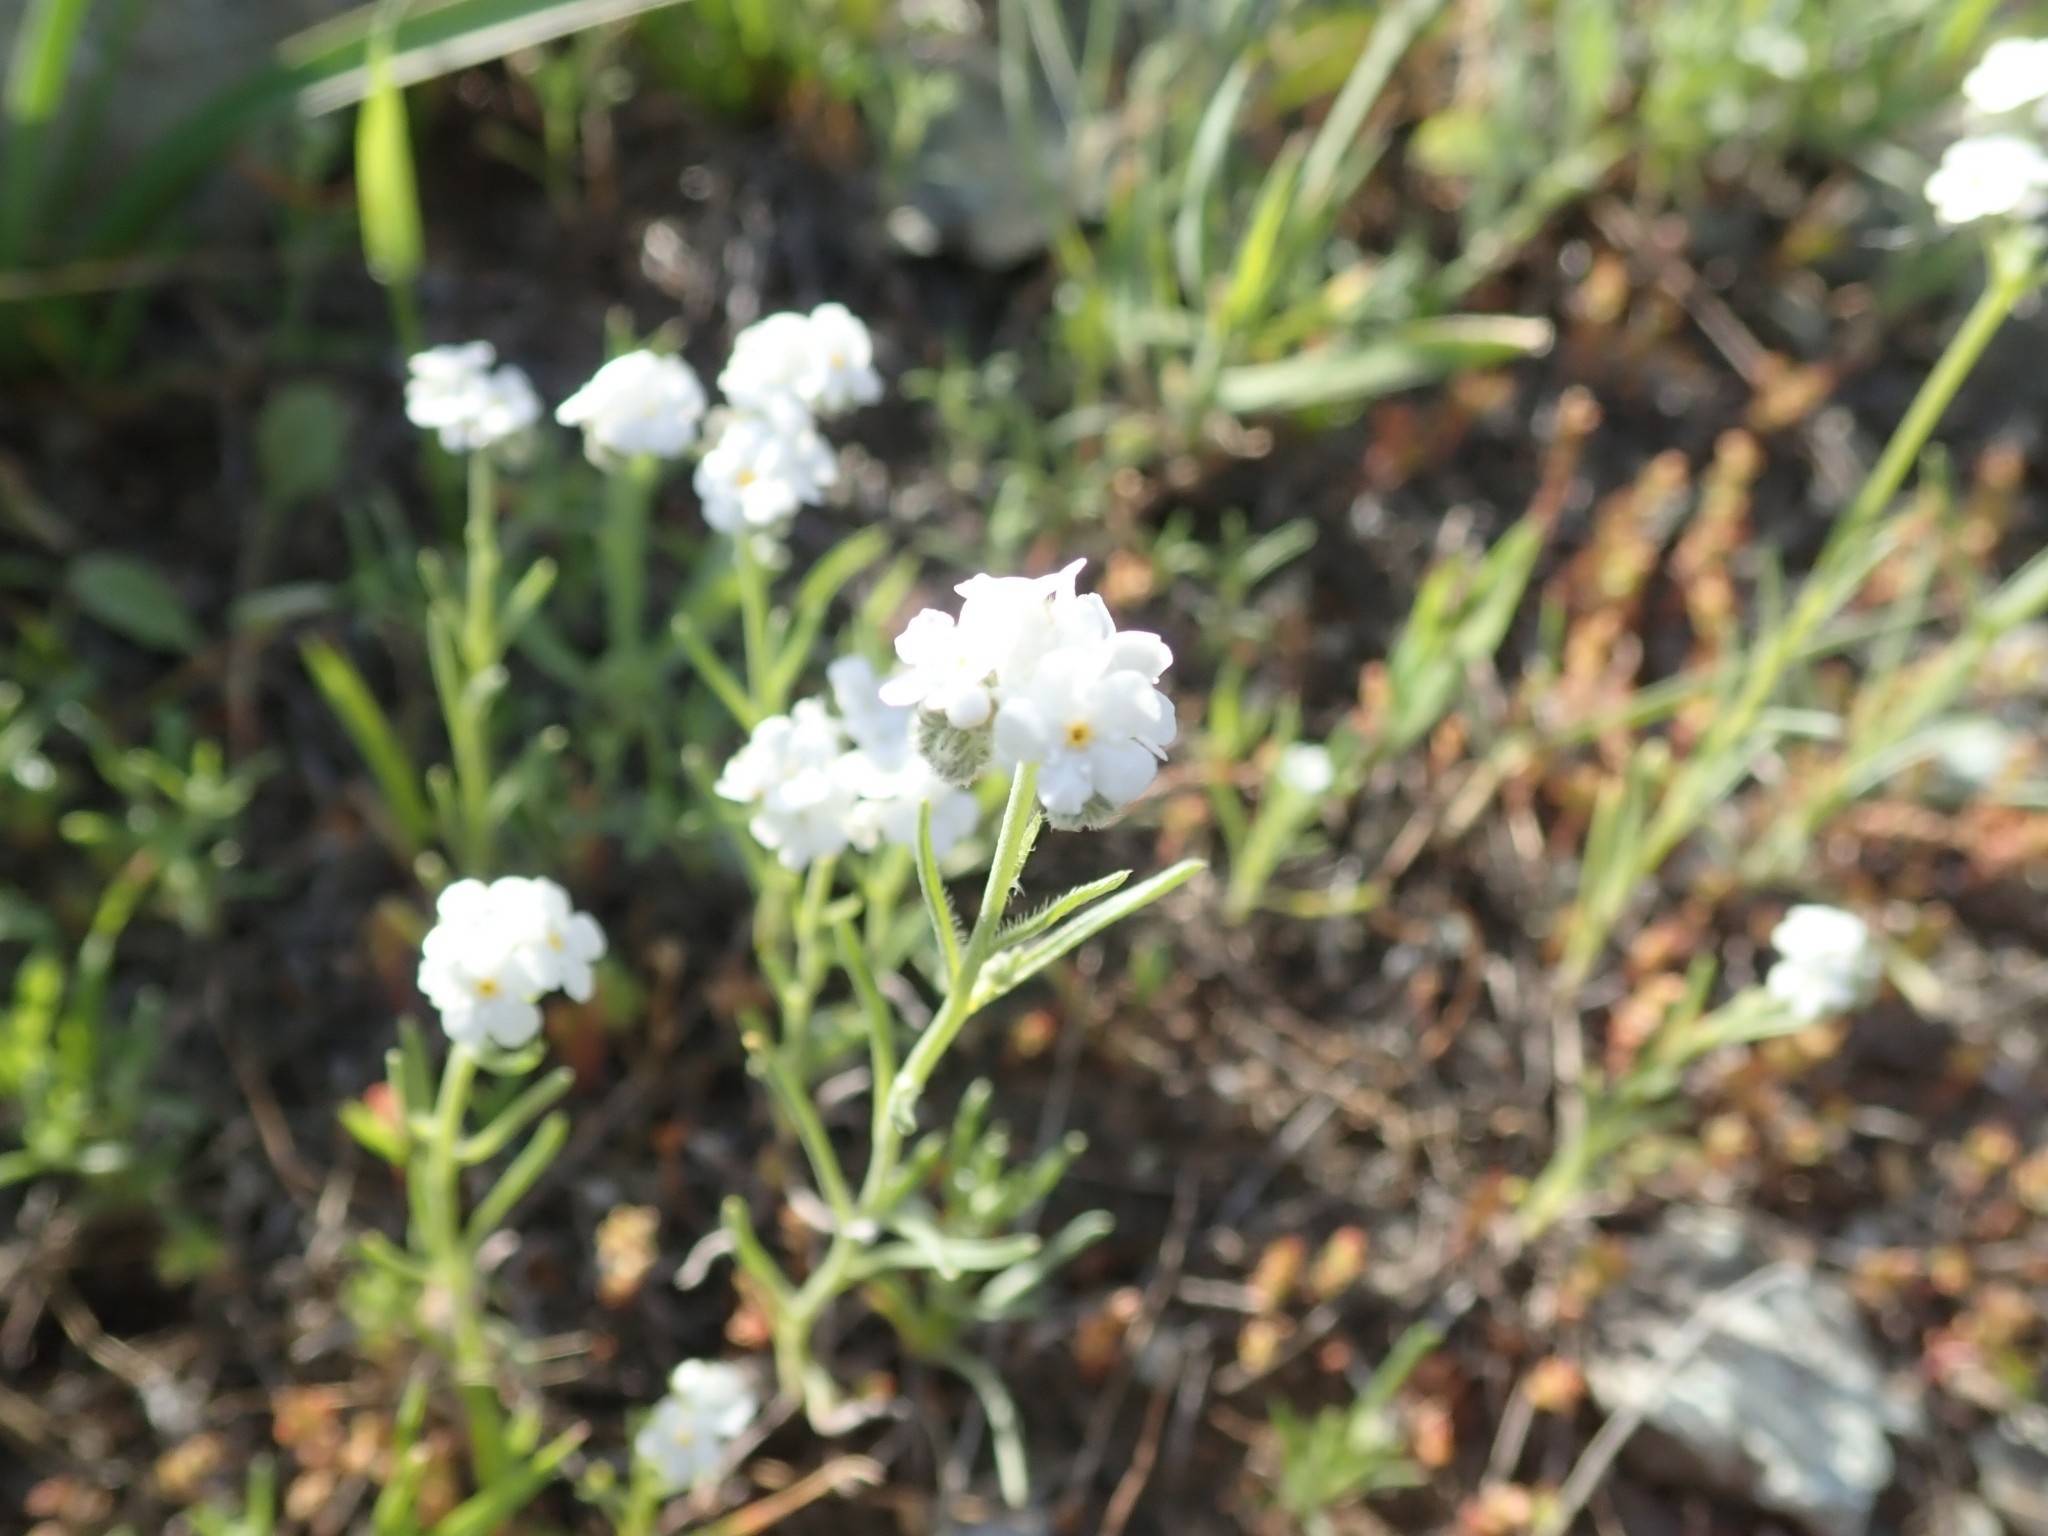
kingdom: Plantae
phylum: Tracheophyta
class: Magnoliopsida
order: Boraginales
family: Boraginaceae
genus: Cryptantha
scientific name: Cryptantha flaccida
